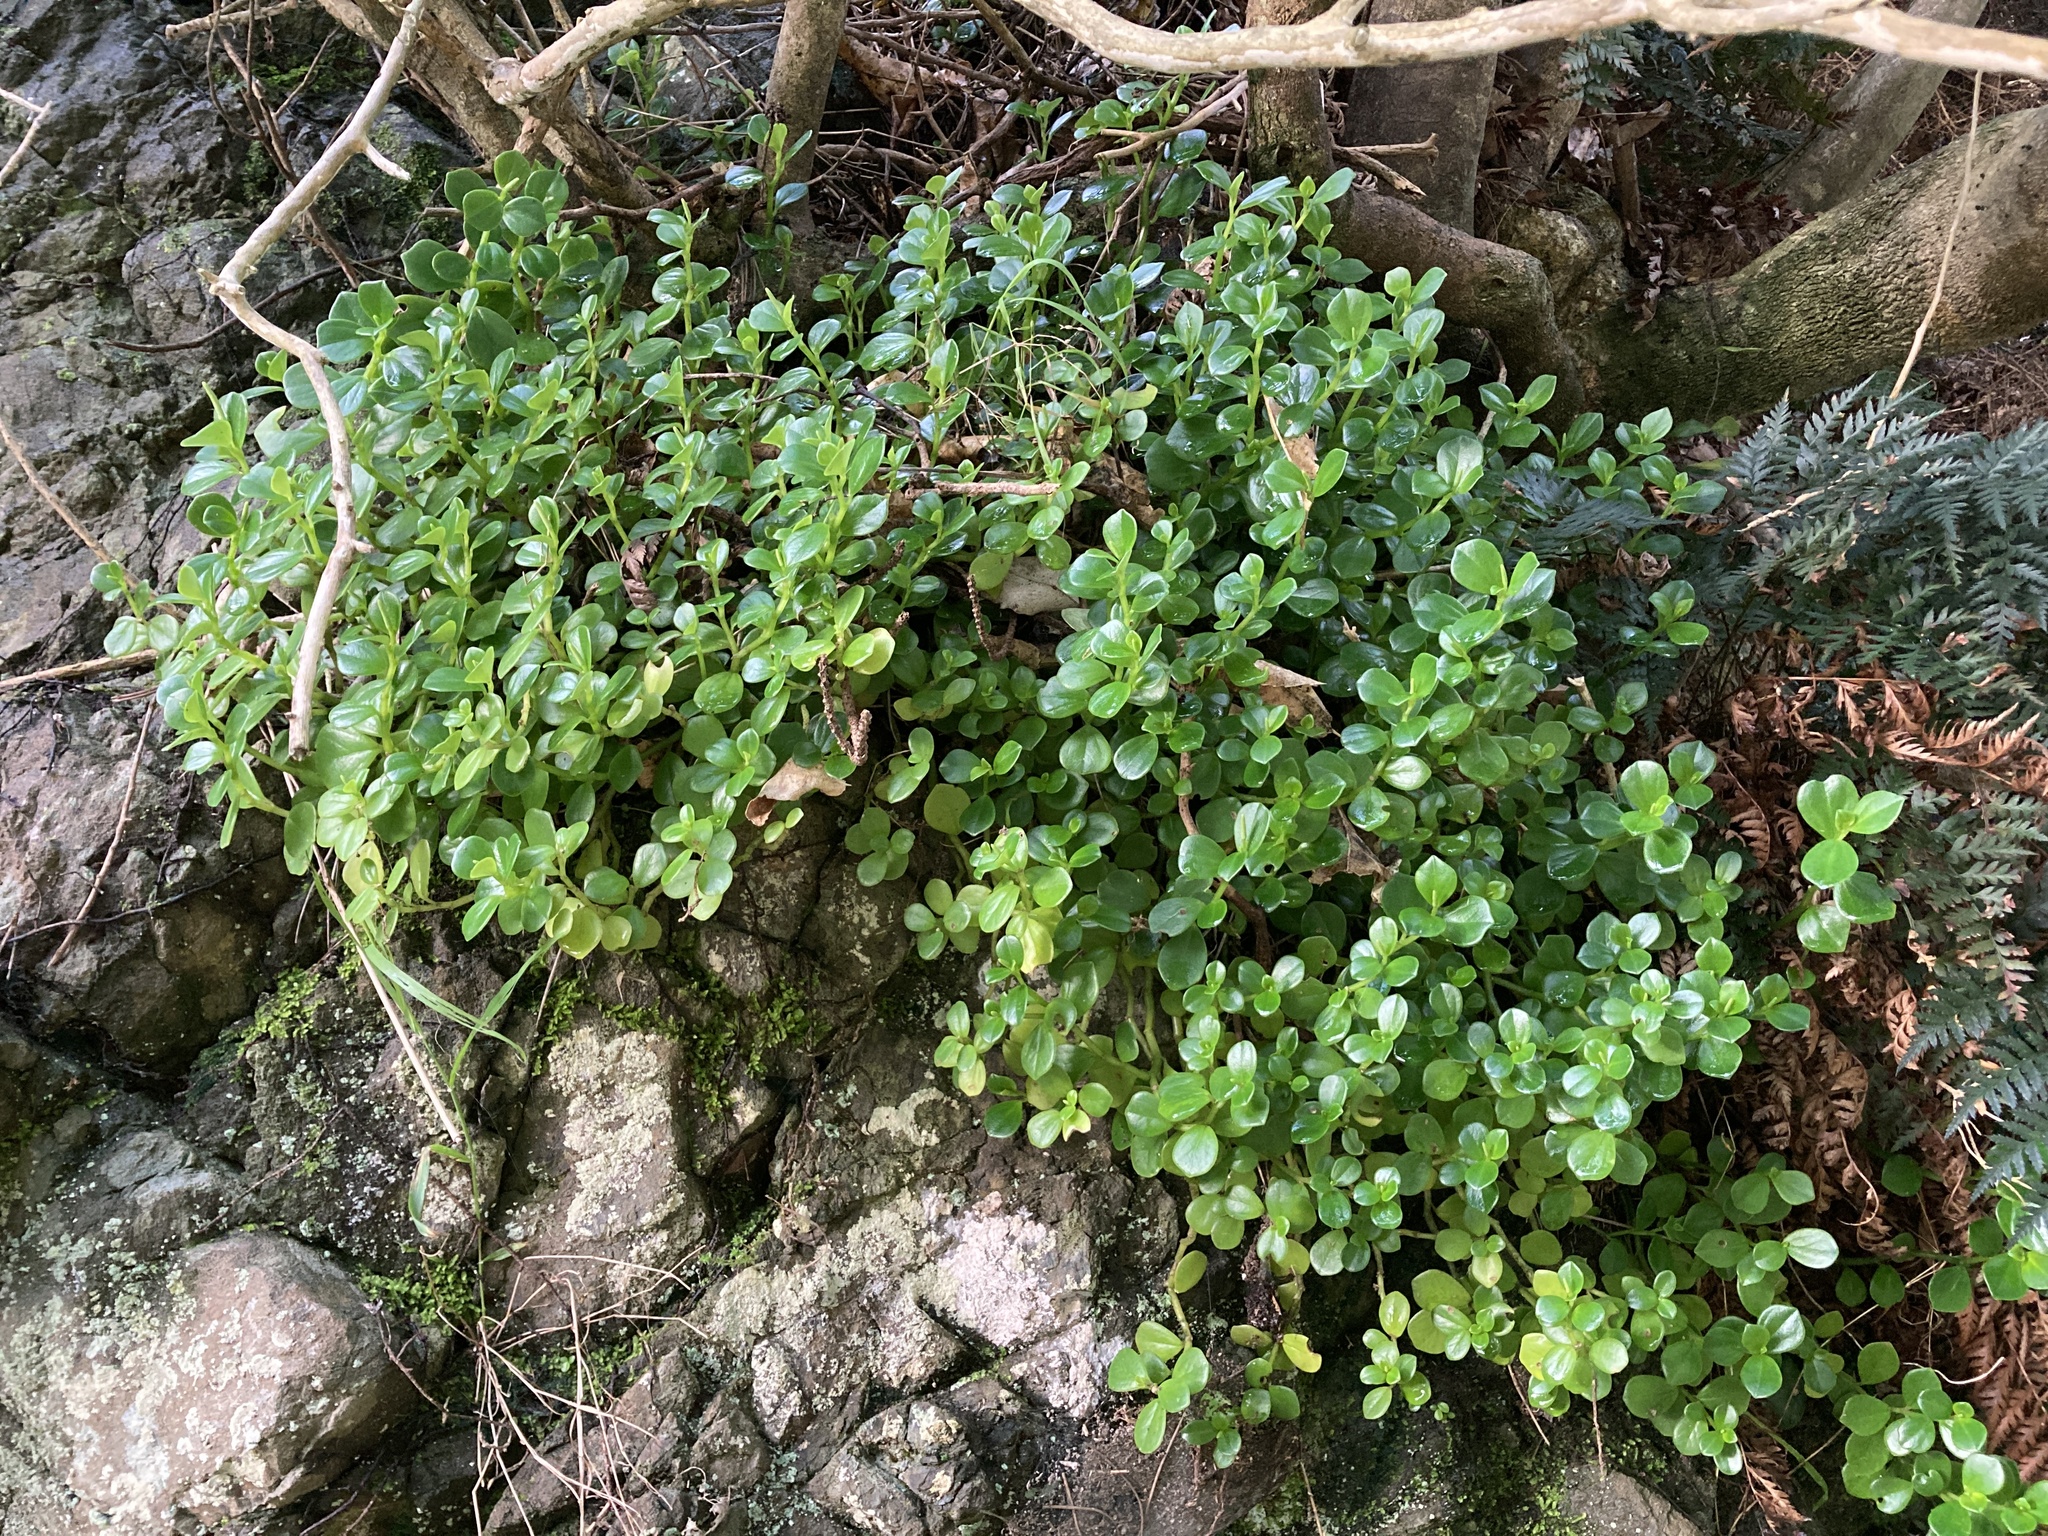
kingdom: Plantae
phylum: Tracheophyta
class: Magnoliopsida
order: Piperales
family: Piperaceae
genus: Peperomia
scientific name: Peperomia urvilleana
